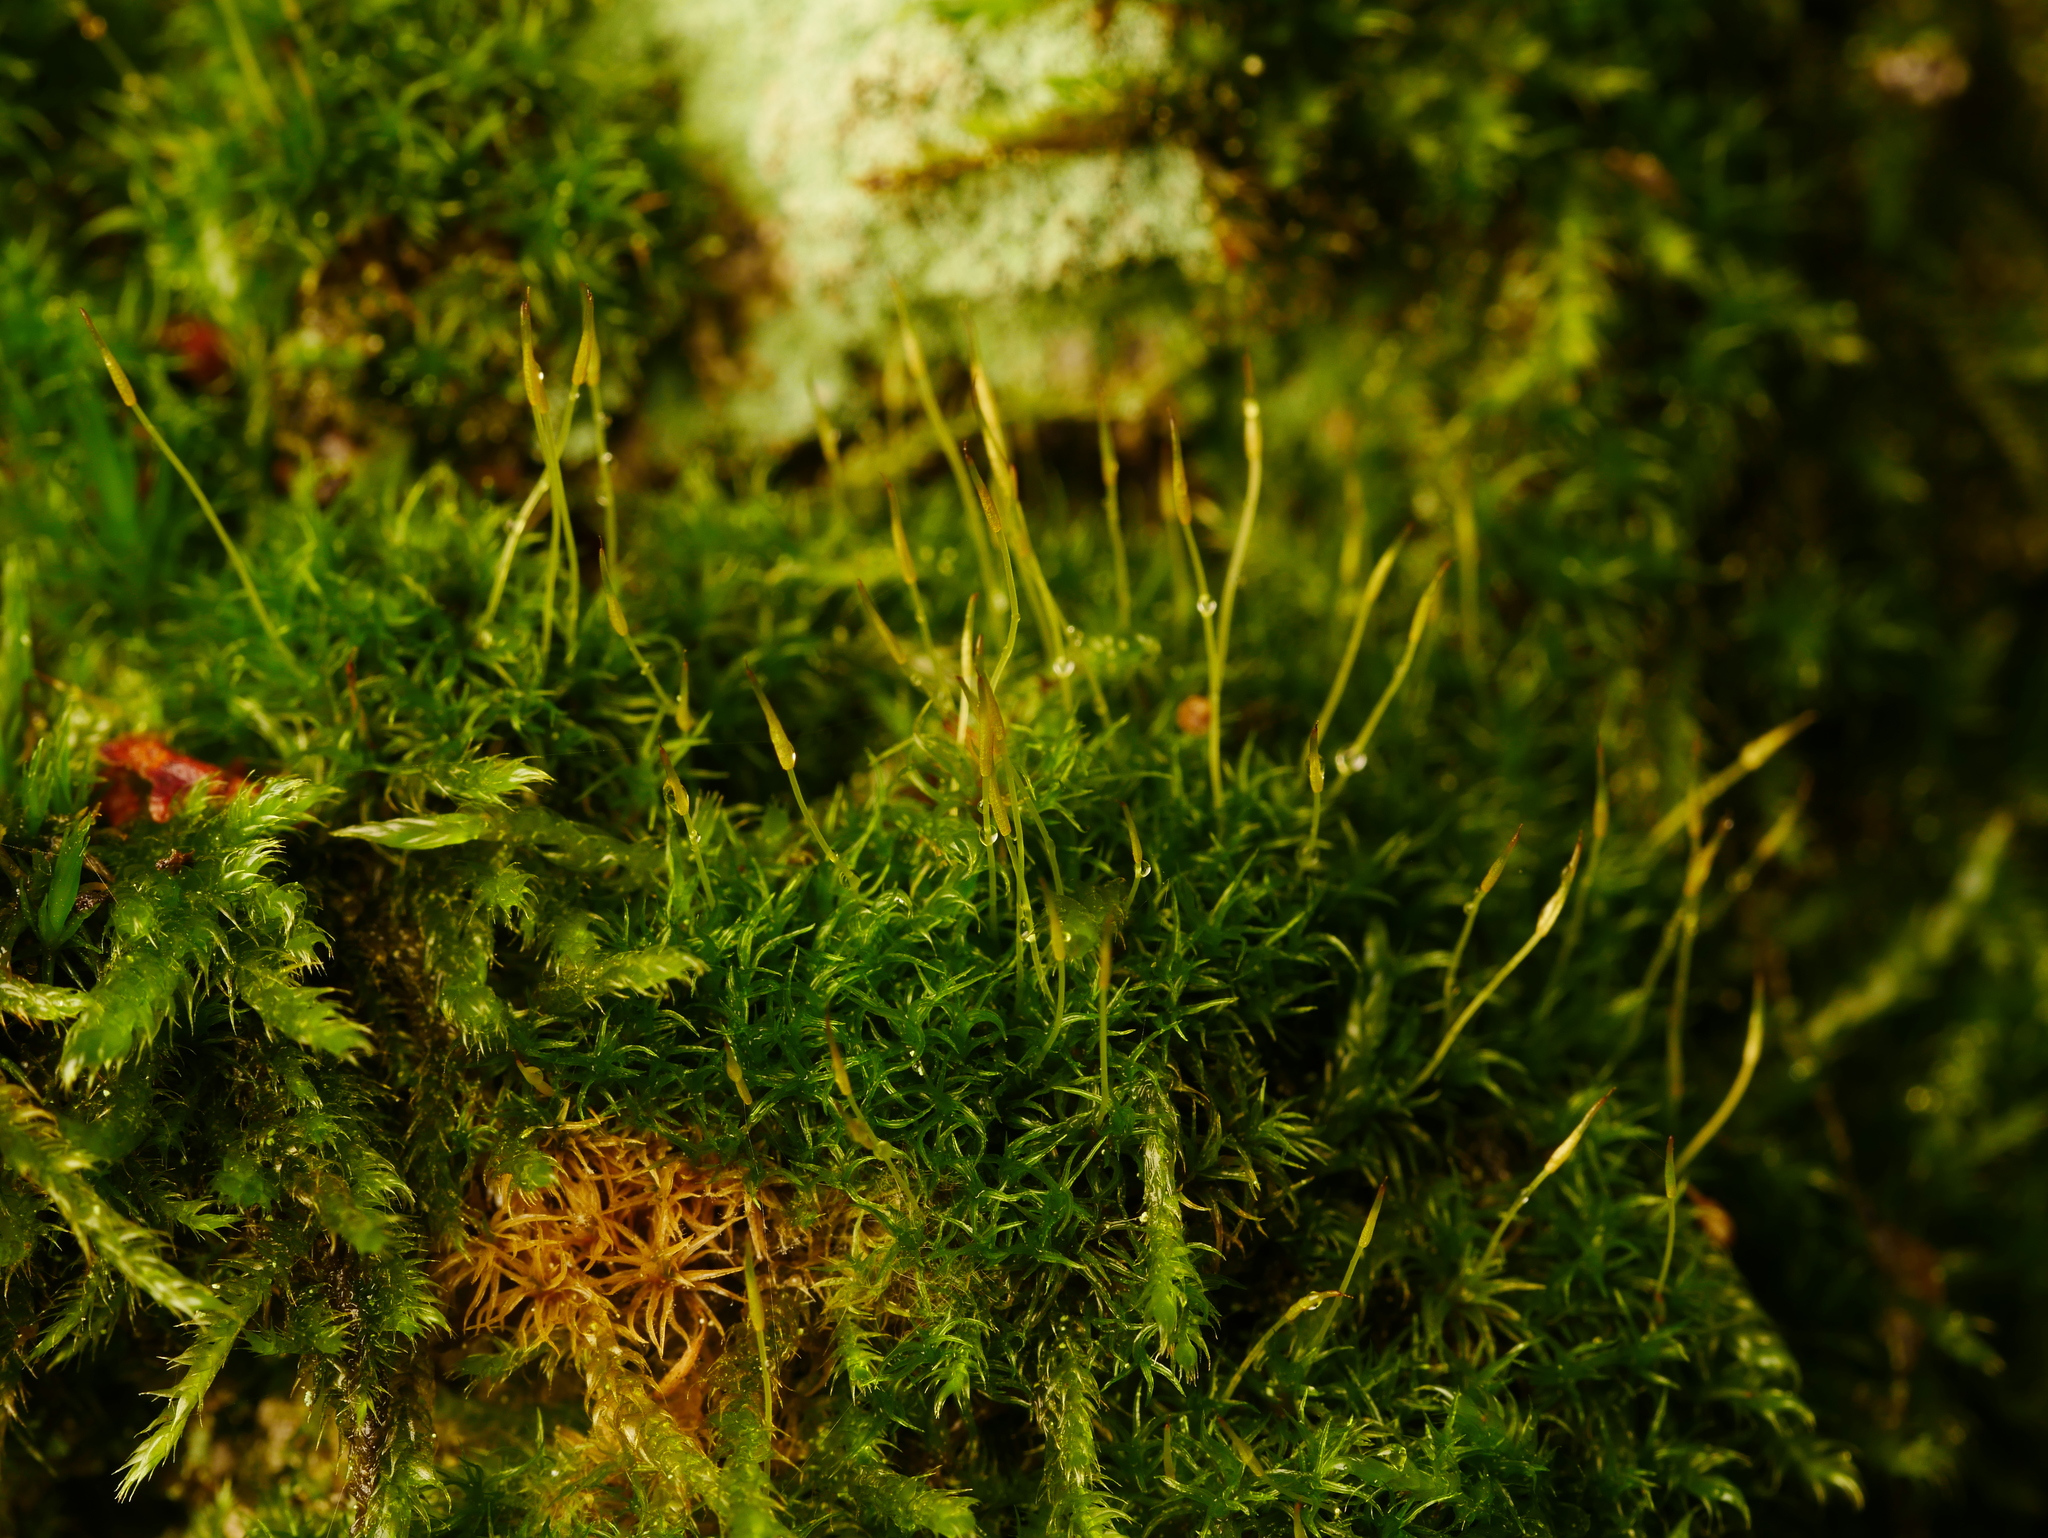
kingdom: Plantae
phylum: Bryophyta
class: Bryopsida
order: Dicranales
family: Rhabdoweisiaceae
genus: Dicranoweisia
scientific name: Dicranoweisia cirrata
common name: Common pincushion
